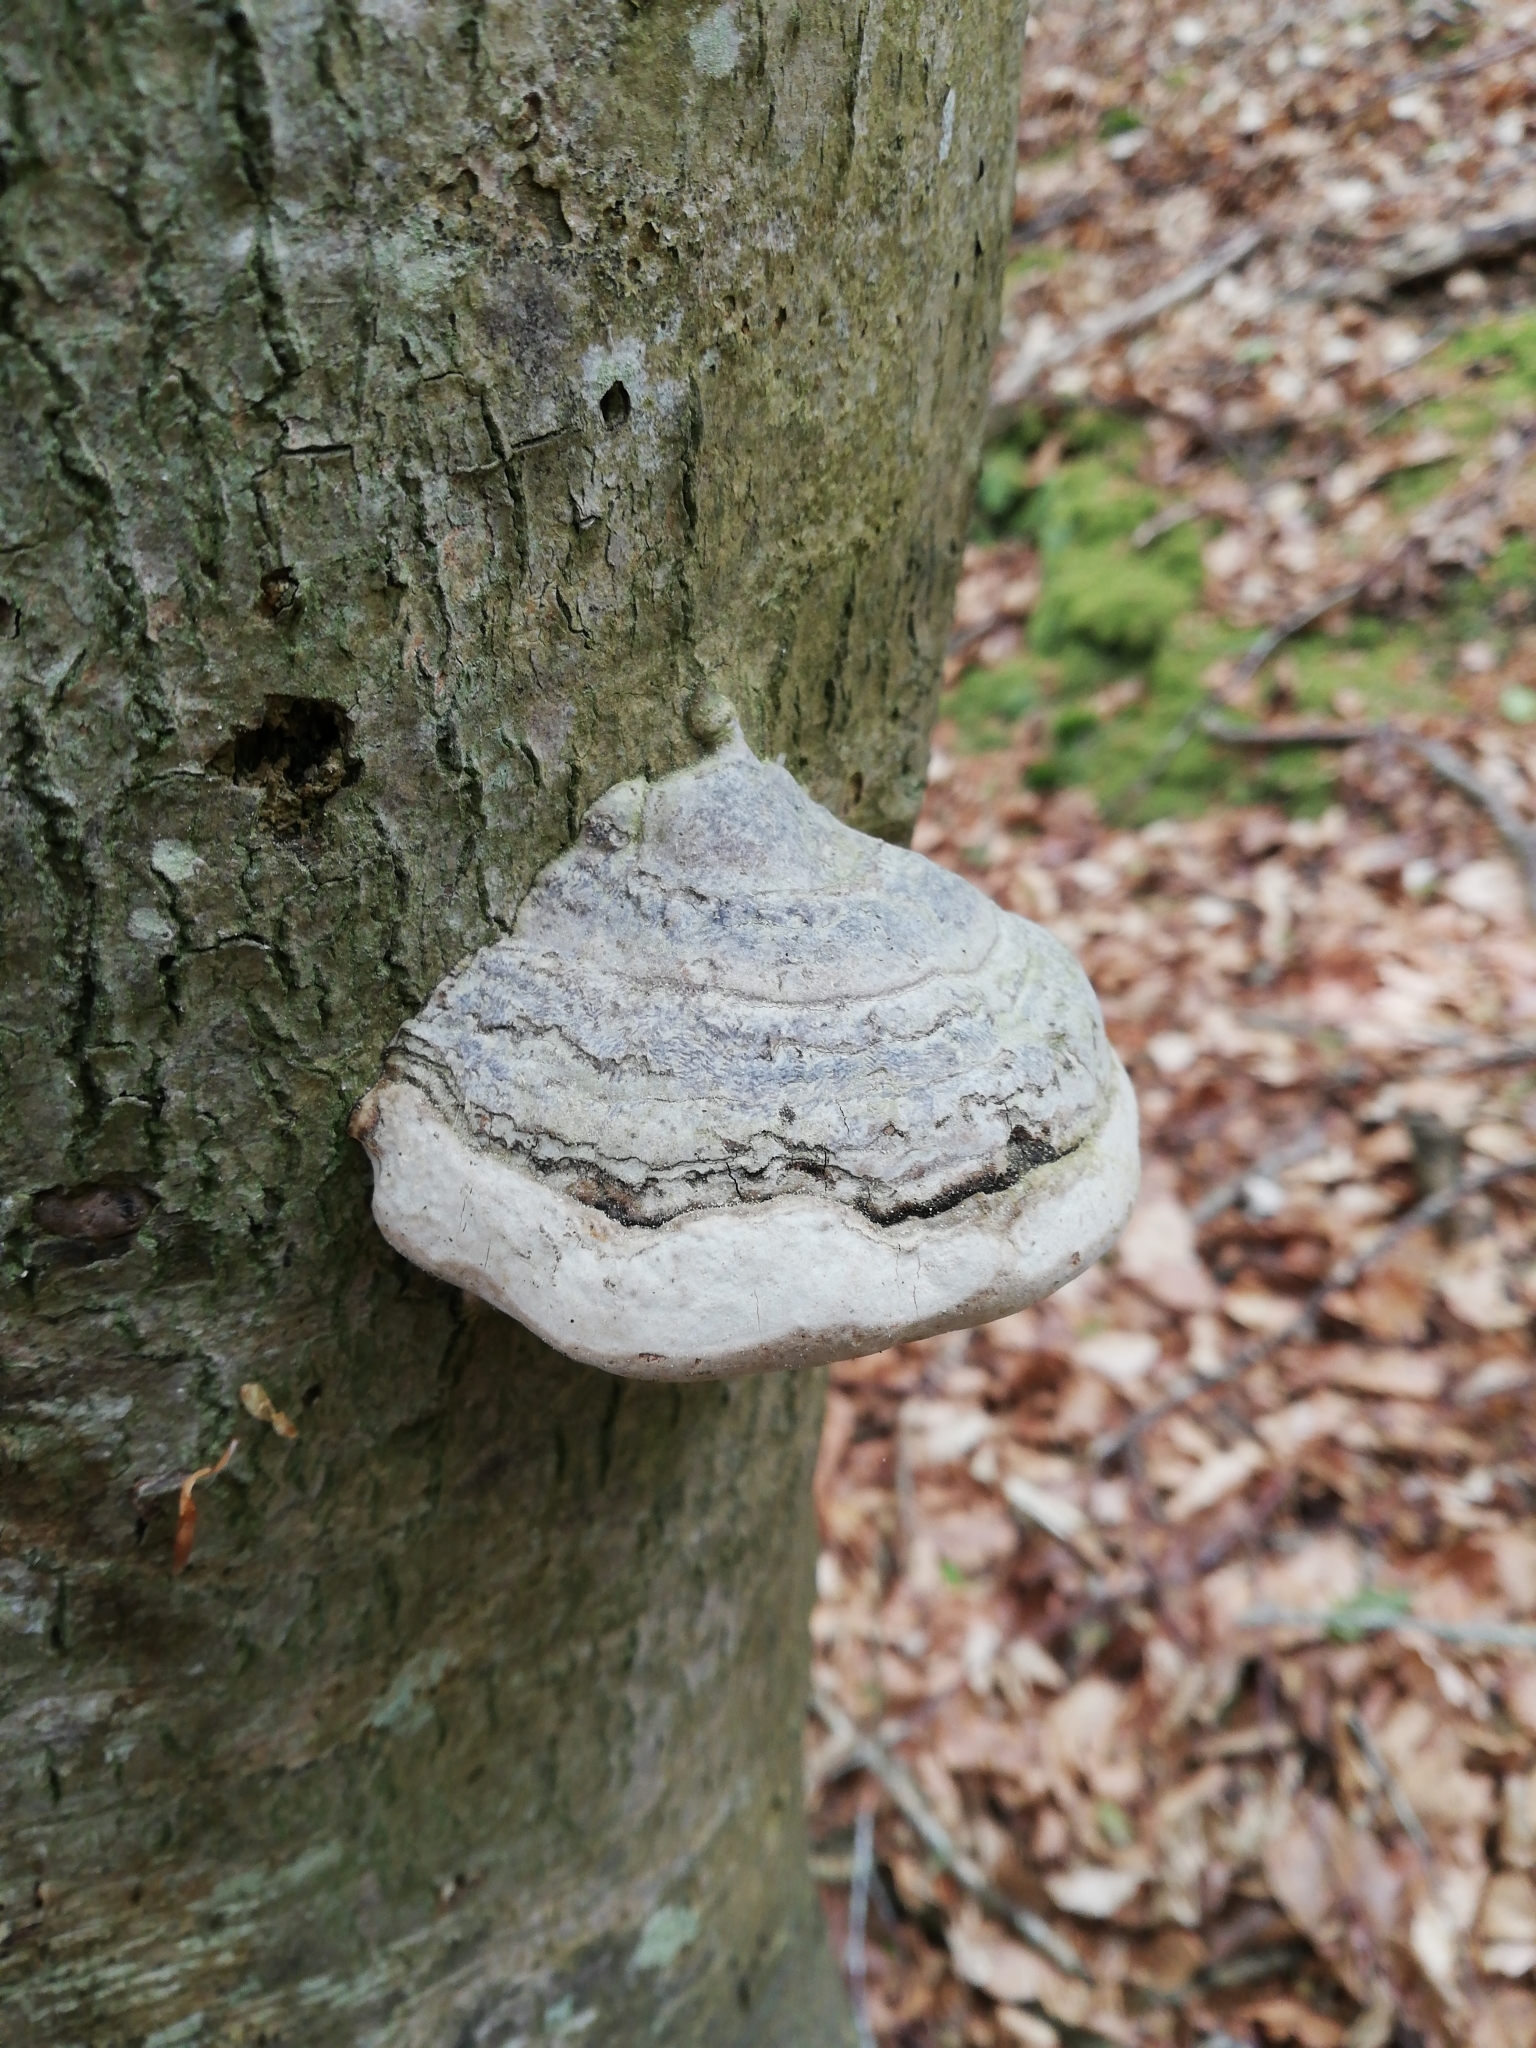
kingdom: Fungi
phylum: Basidiomycota
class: Agaricomycetes
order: Polyporales
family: Polyporaceae
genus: Fomes
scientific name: Fomes fomentarius
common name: Hoof fungus
